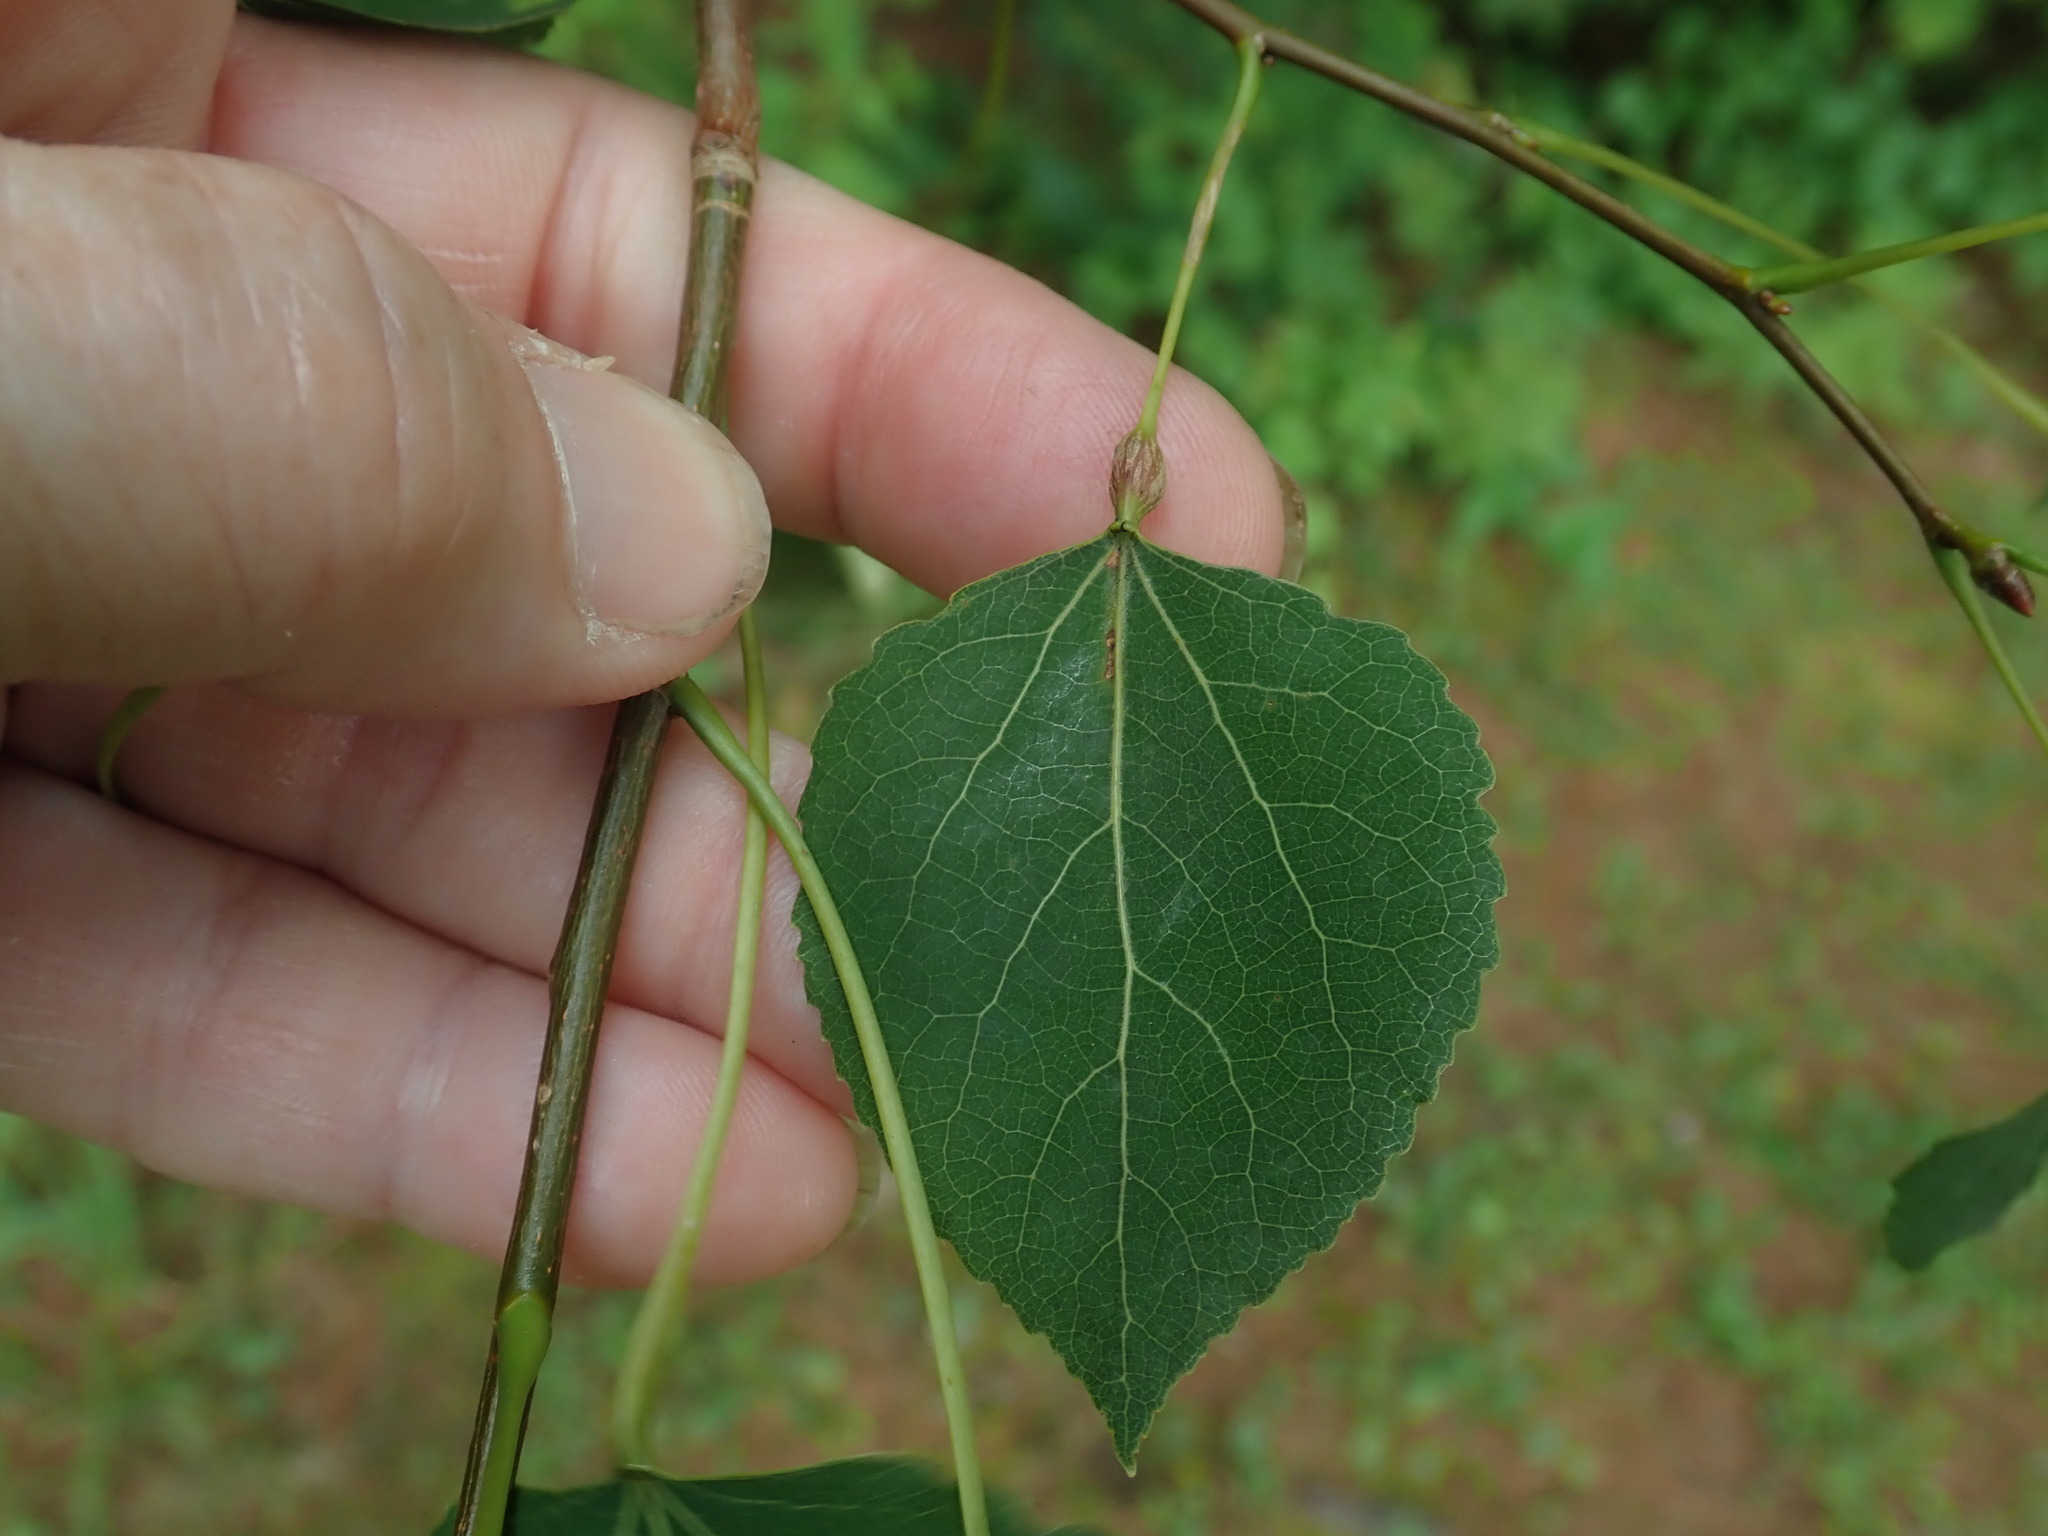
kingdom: Animalia
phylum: Arthropoda
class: Insecta
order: Lepidoptera
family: Nepticulidae
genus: Ectoedemia
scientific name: Ectoedemia populella
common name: Aspen petiole gall moth
